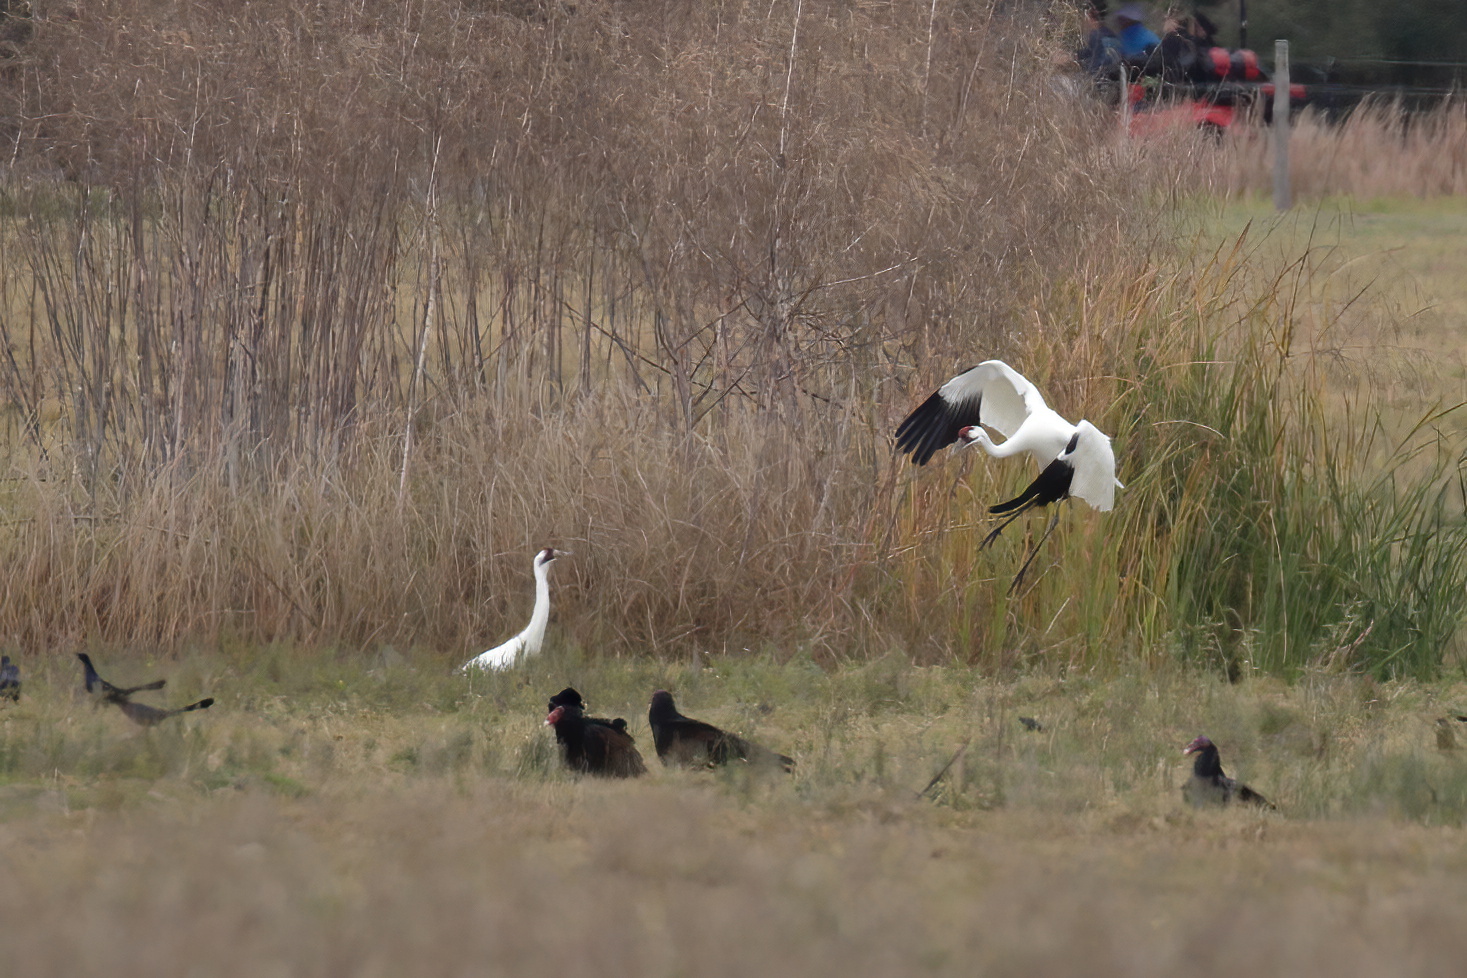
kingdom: Animalia
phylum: Chordata
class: Aves
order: Gruiformes
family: Gruidae
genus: Grus
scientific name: Grus americana
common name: Whooping crane
